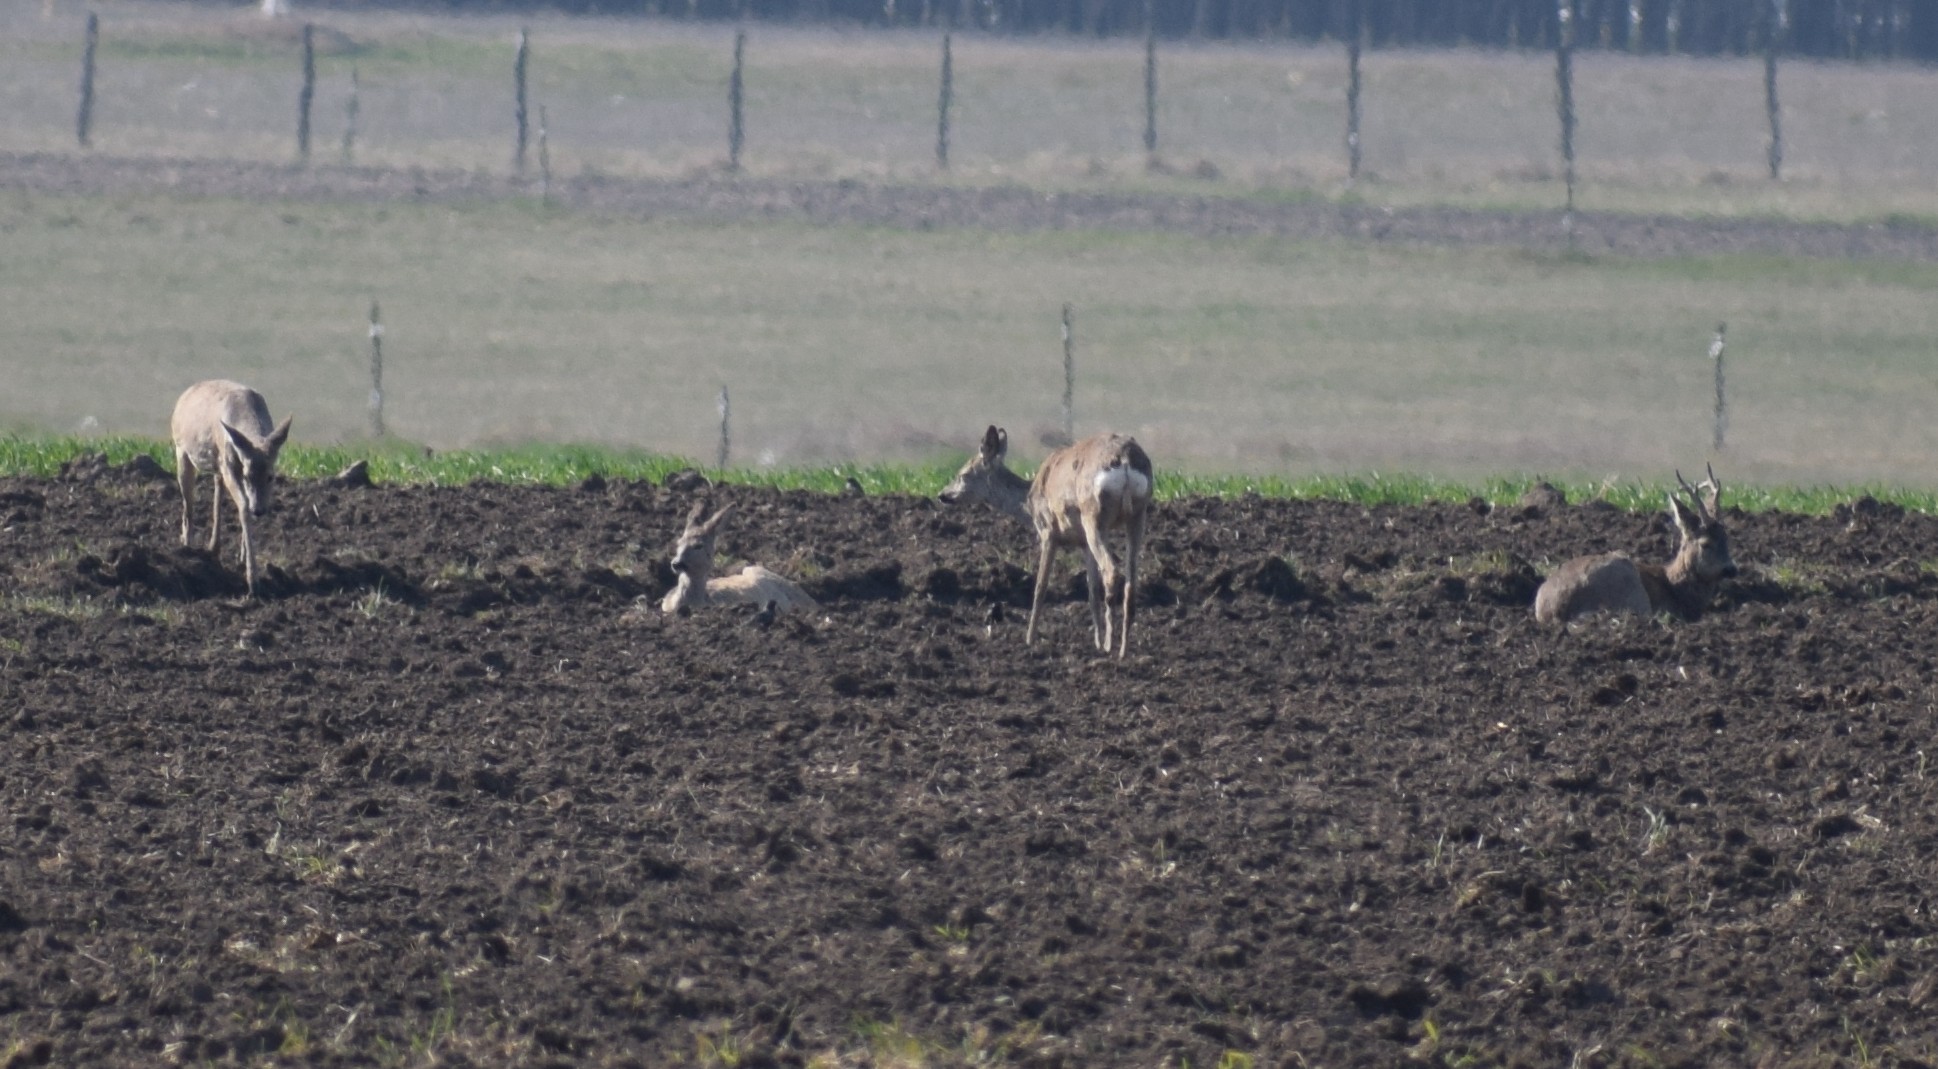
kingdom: Animalia
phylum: Chordata
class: Mammalia
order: Artiodactyla
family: Cervidae
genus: Capreolus
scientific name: Capreolus capreolus
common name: Western roe deer
